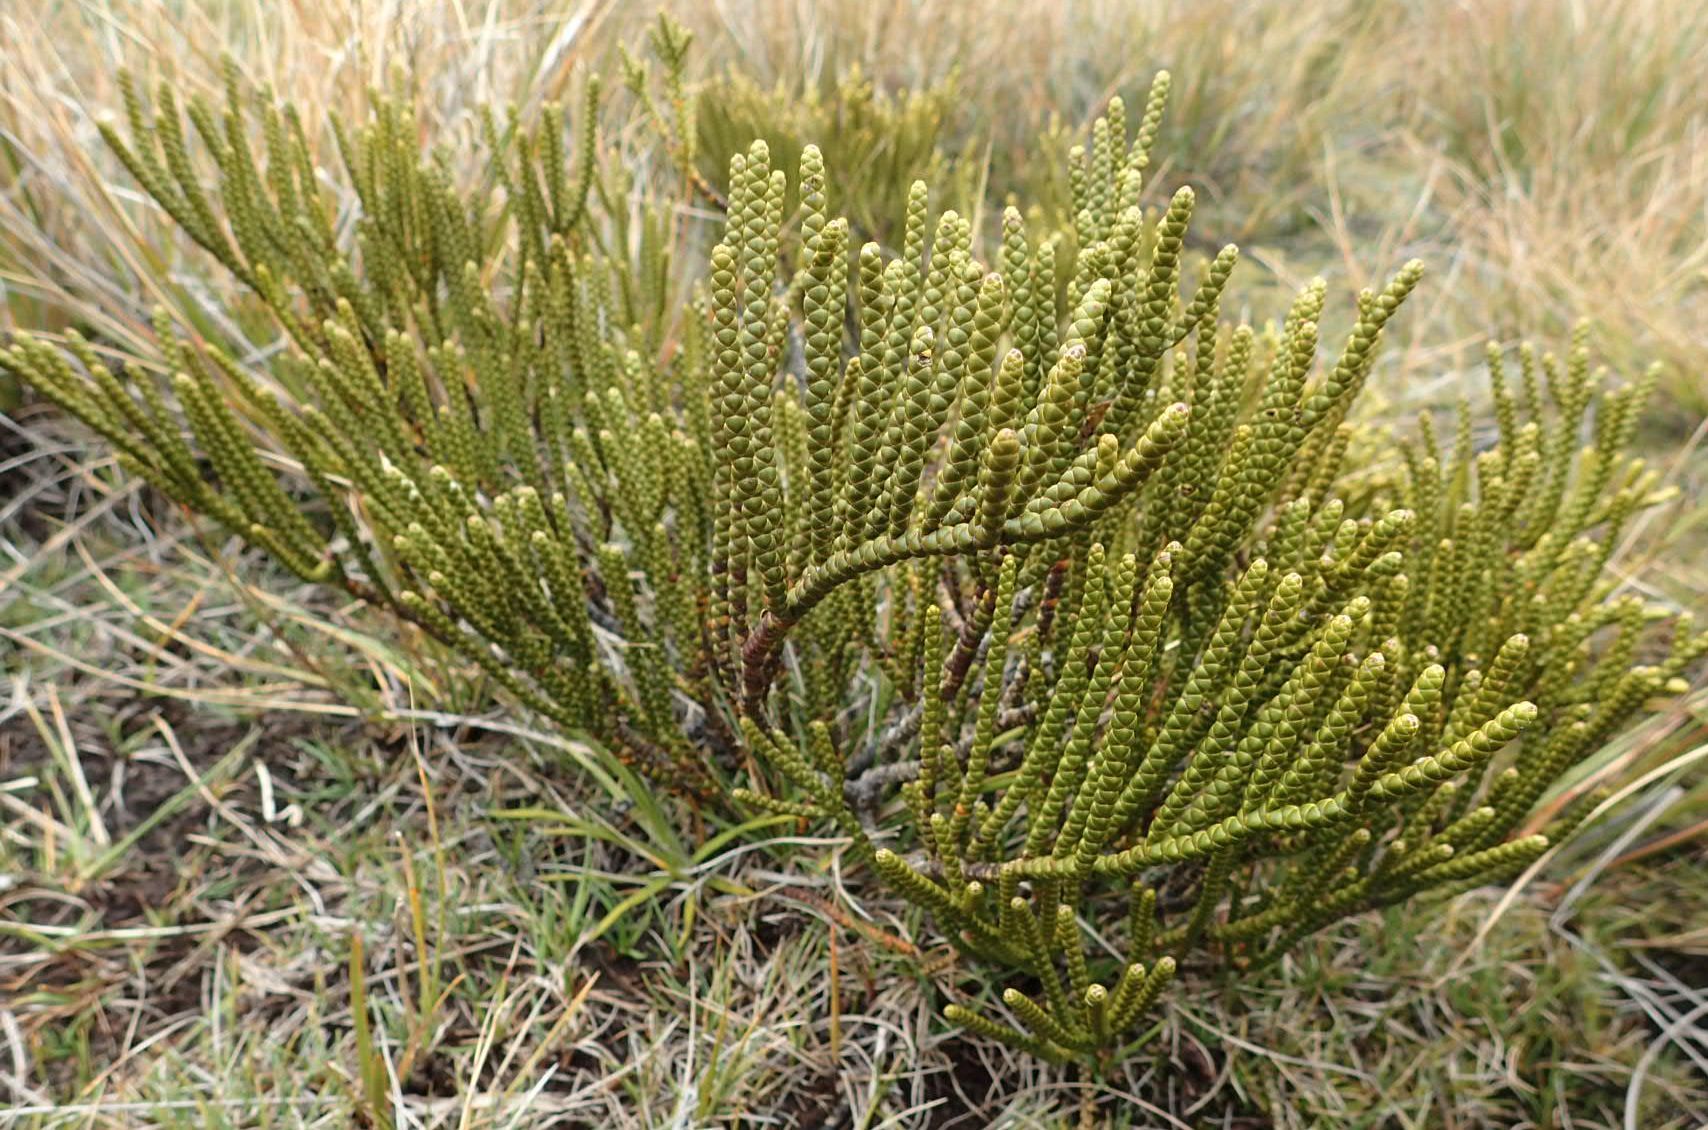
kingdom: Plantae
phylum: Tracheophyta
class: Magnoliopsida
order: Lamiales
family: Plantaginaceae
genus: Veronica
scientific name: Veronica hectorii
